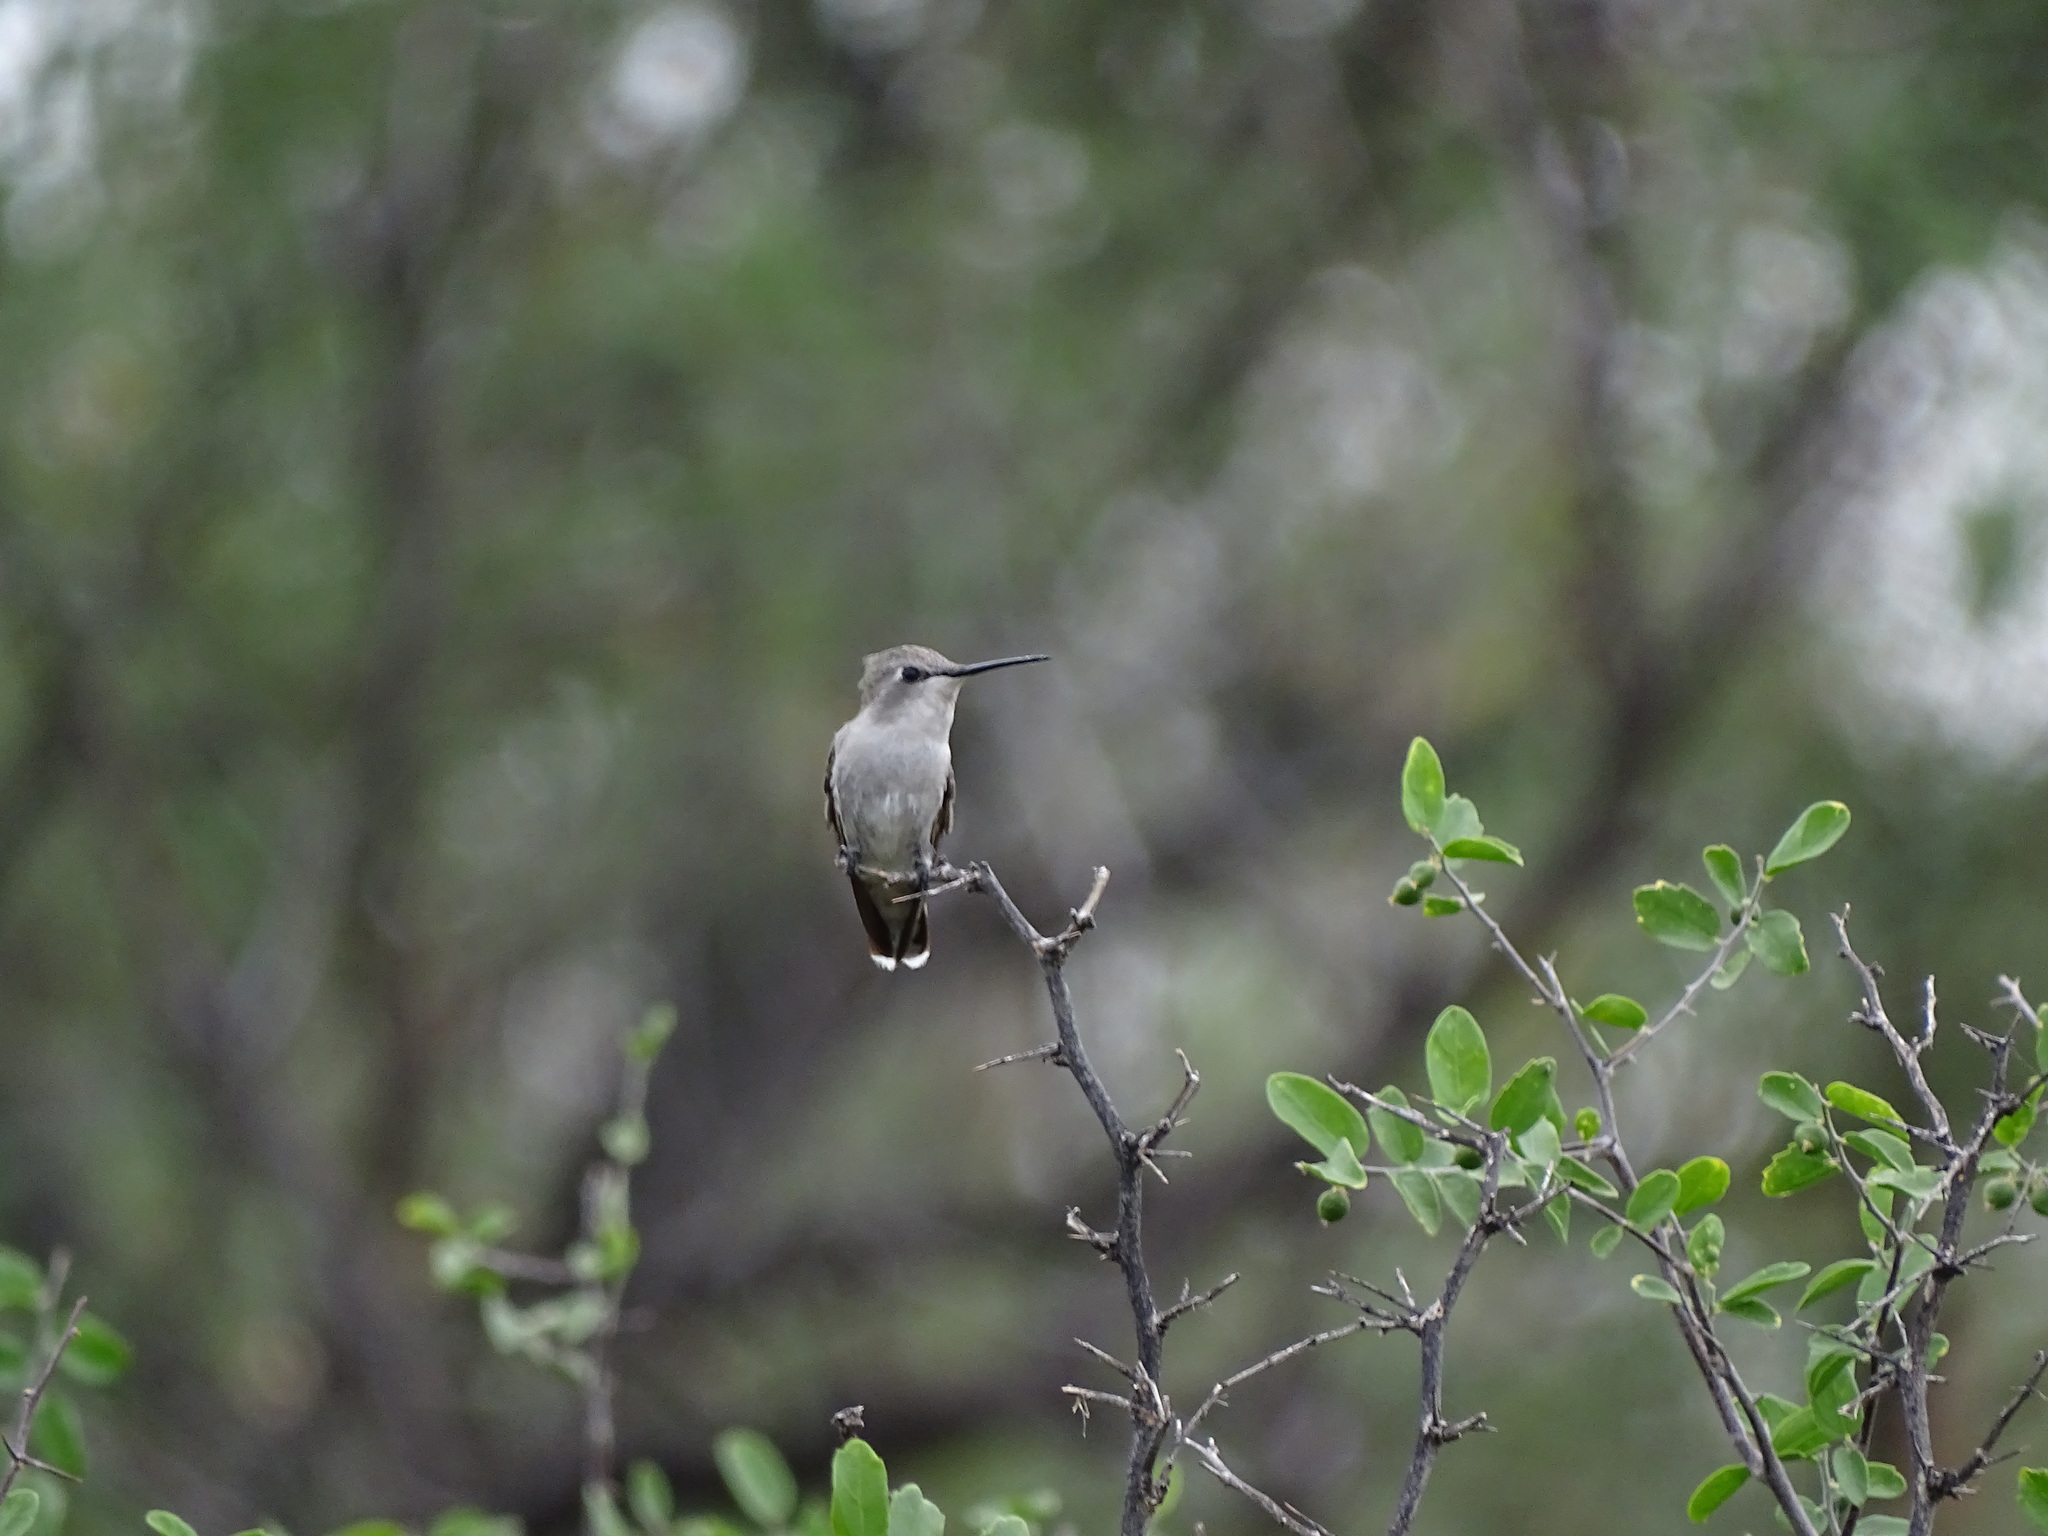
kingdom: Animalia
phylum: Chordata
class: Aves
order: Apodiformes
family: Trochilidae
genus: Calypte
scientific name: Calypte costae
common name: Costa's hummingbird
